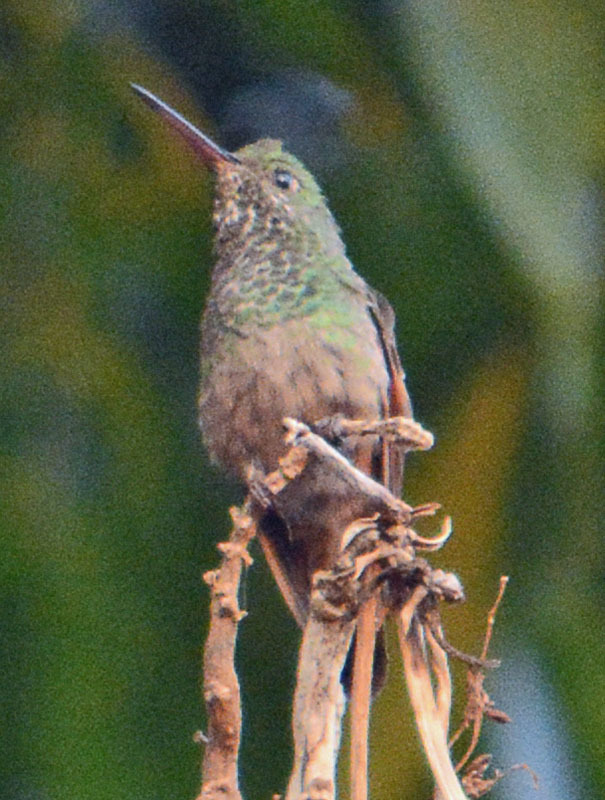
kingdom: Animalia
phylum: Chordata
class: Aves
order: Apodiformes
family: Trochilidae
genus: Saucerottia
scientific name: Saucerottia beryllina
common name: Berylline hummingbird
